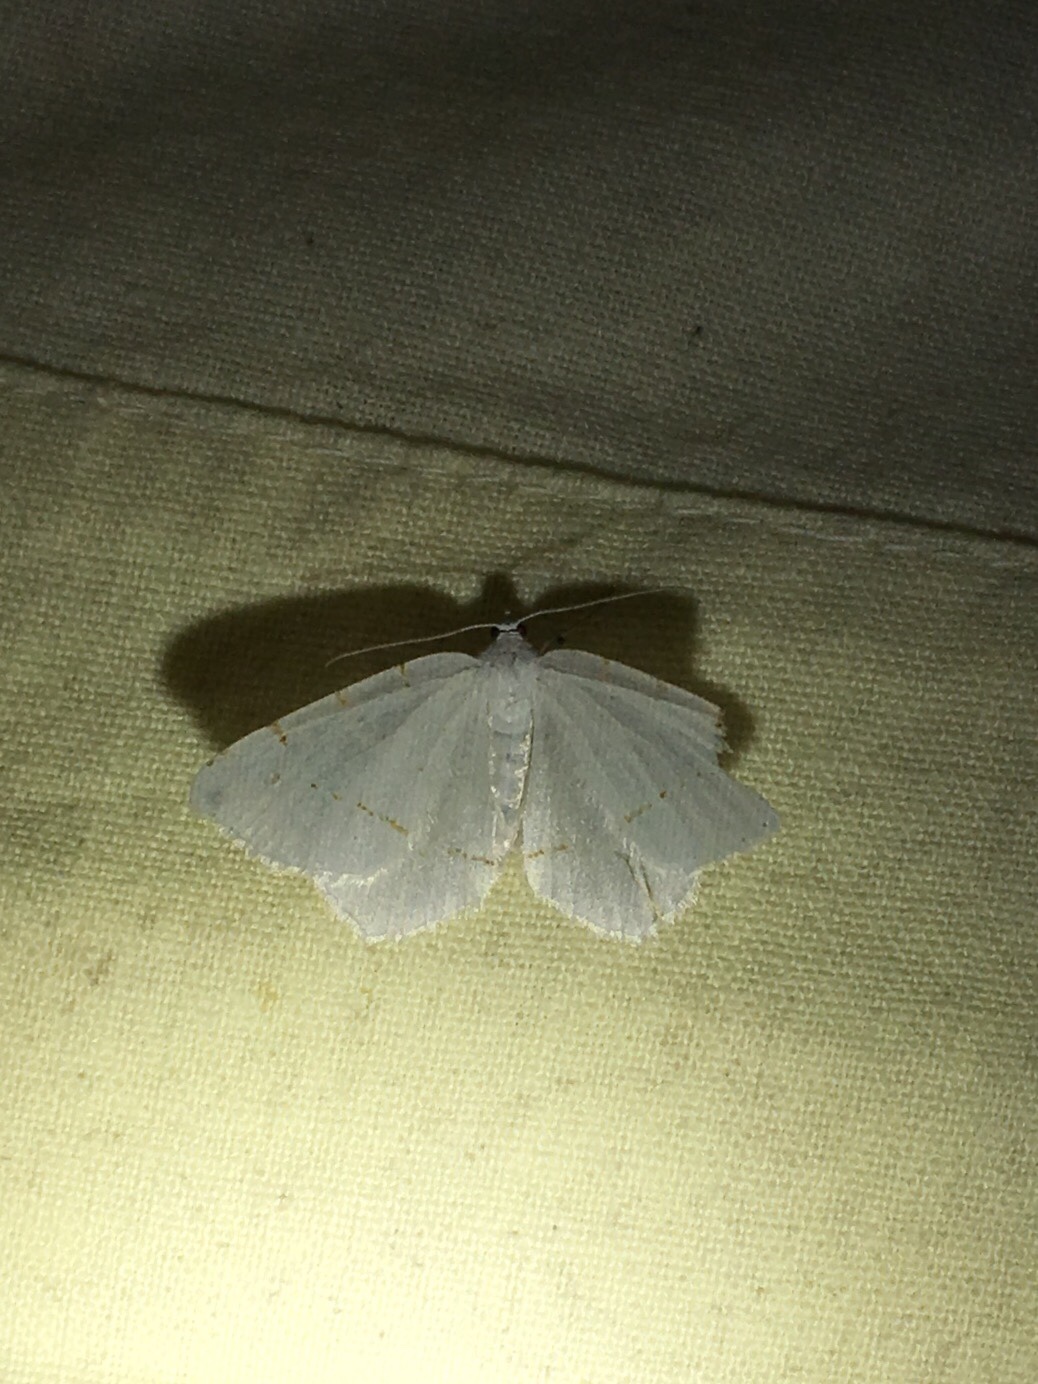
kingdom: Animalia
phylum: Arthropoda
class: Insecta
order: Lepidoptera
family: Geometridae
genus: Macaria
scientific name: Macaria pustularia
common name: Lesser maple spanworm moth
